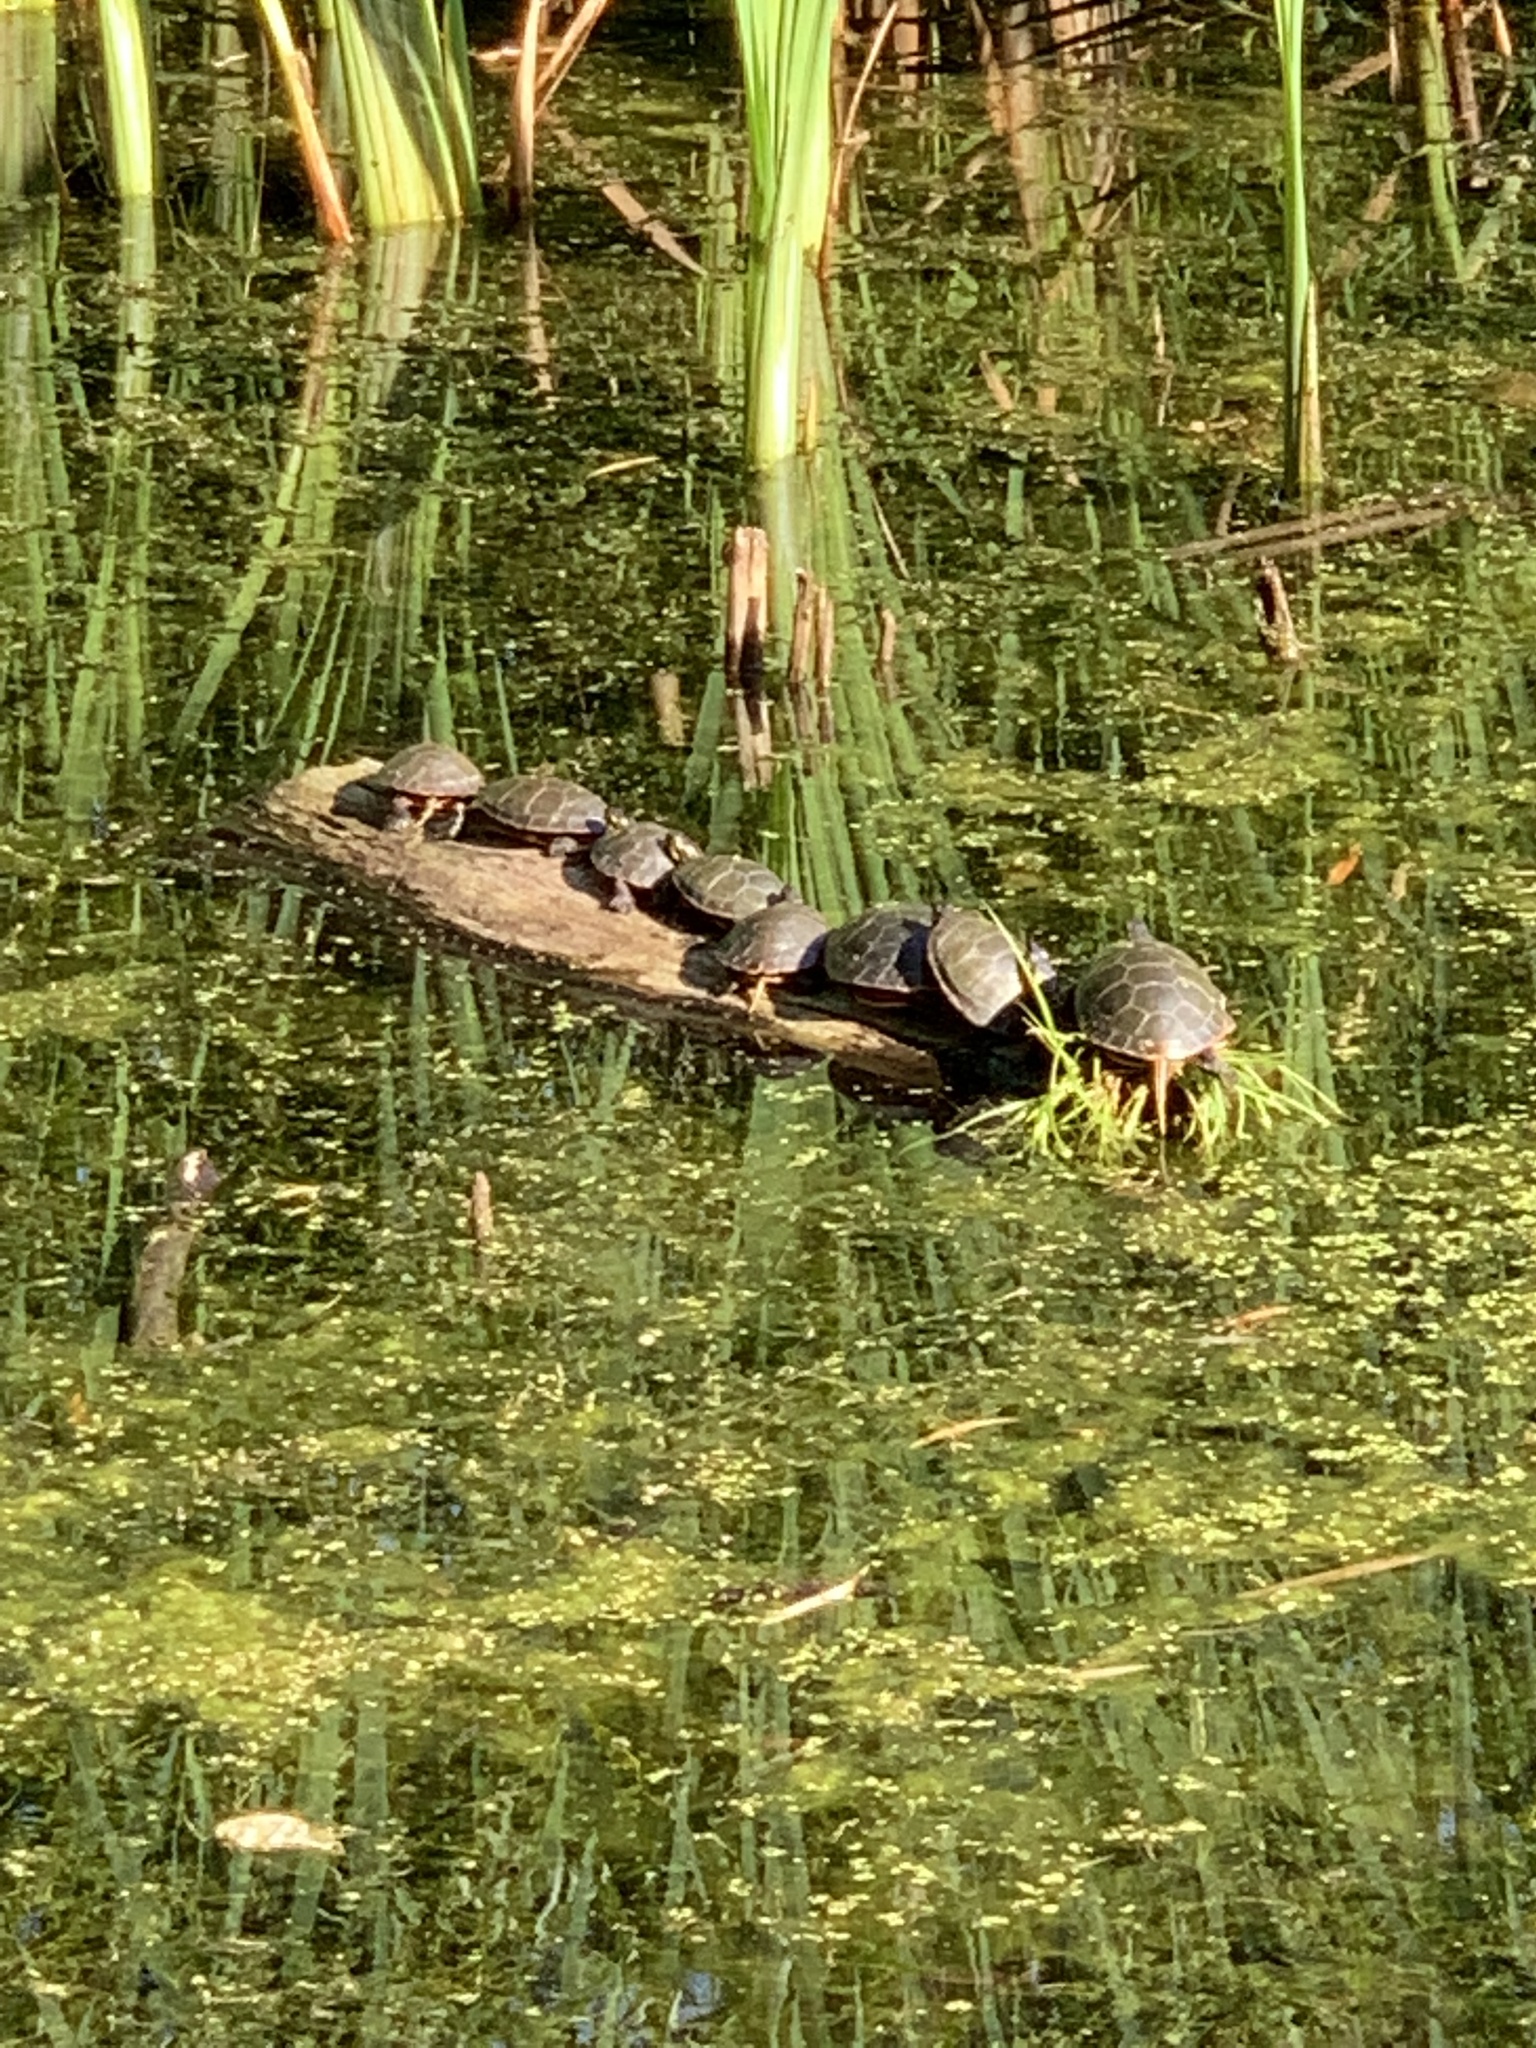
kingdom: Animalia
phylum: Chordata
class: Testudines
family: Emydidae
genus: Chrysemys
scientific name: Chrysemys picta
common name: Painted turtle
